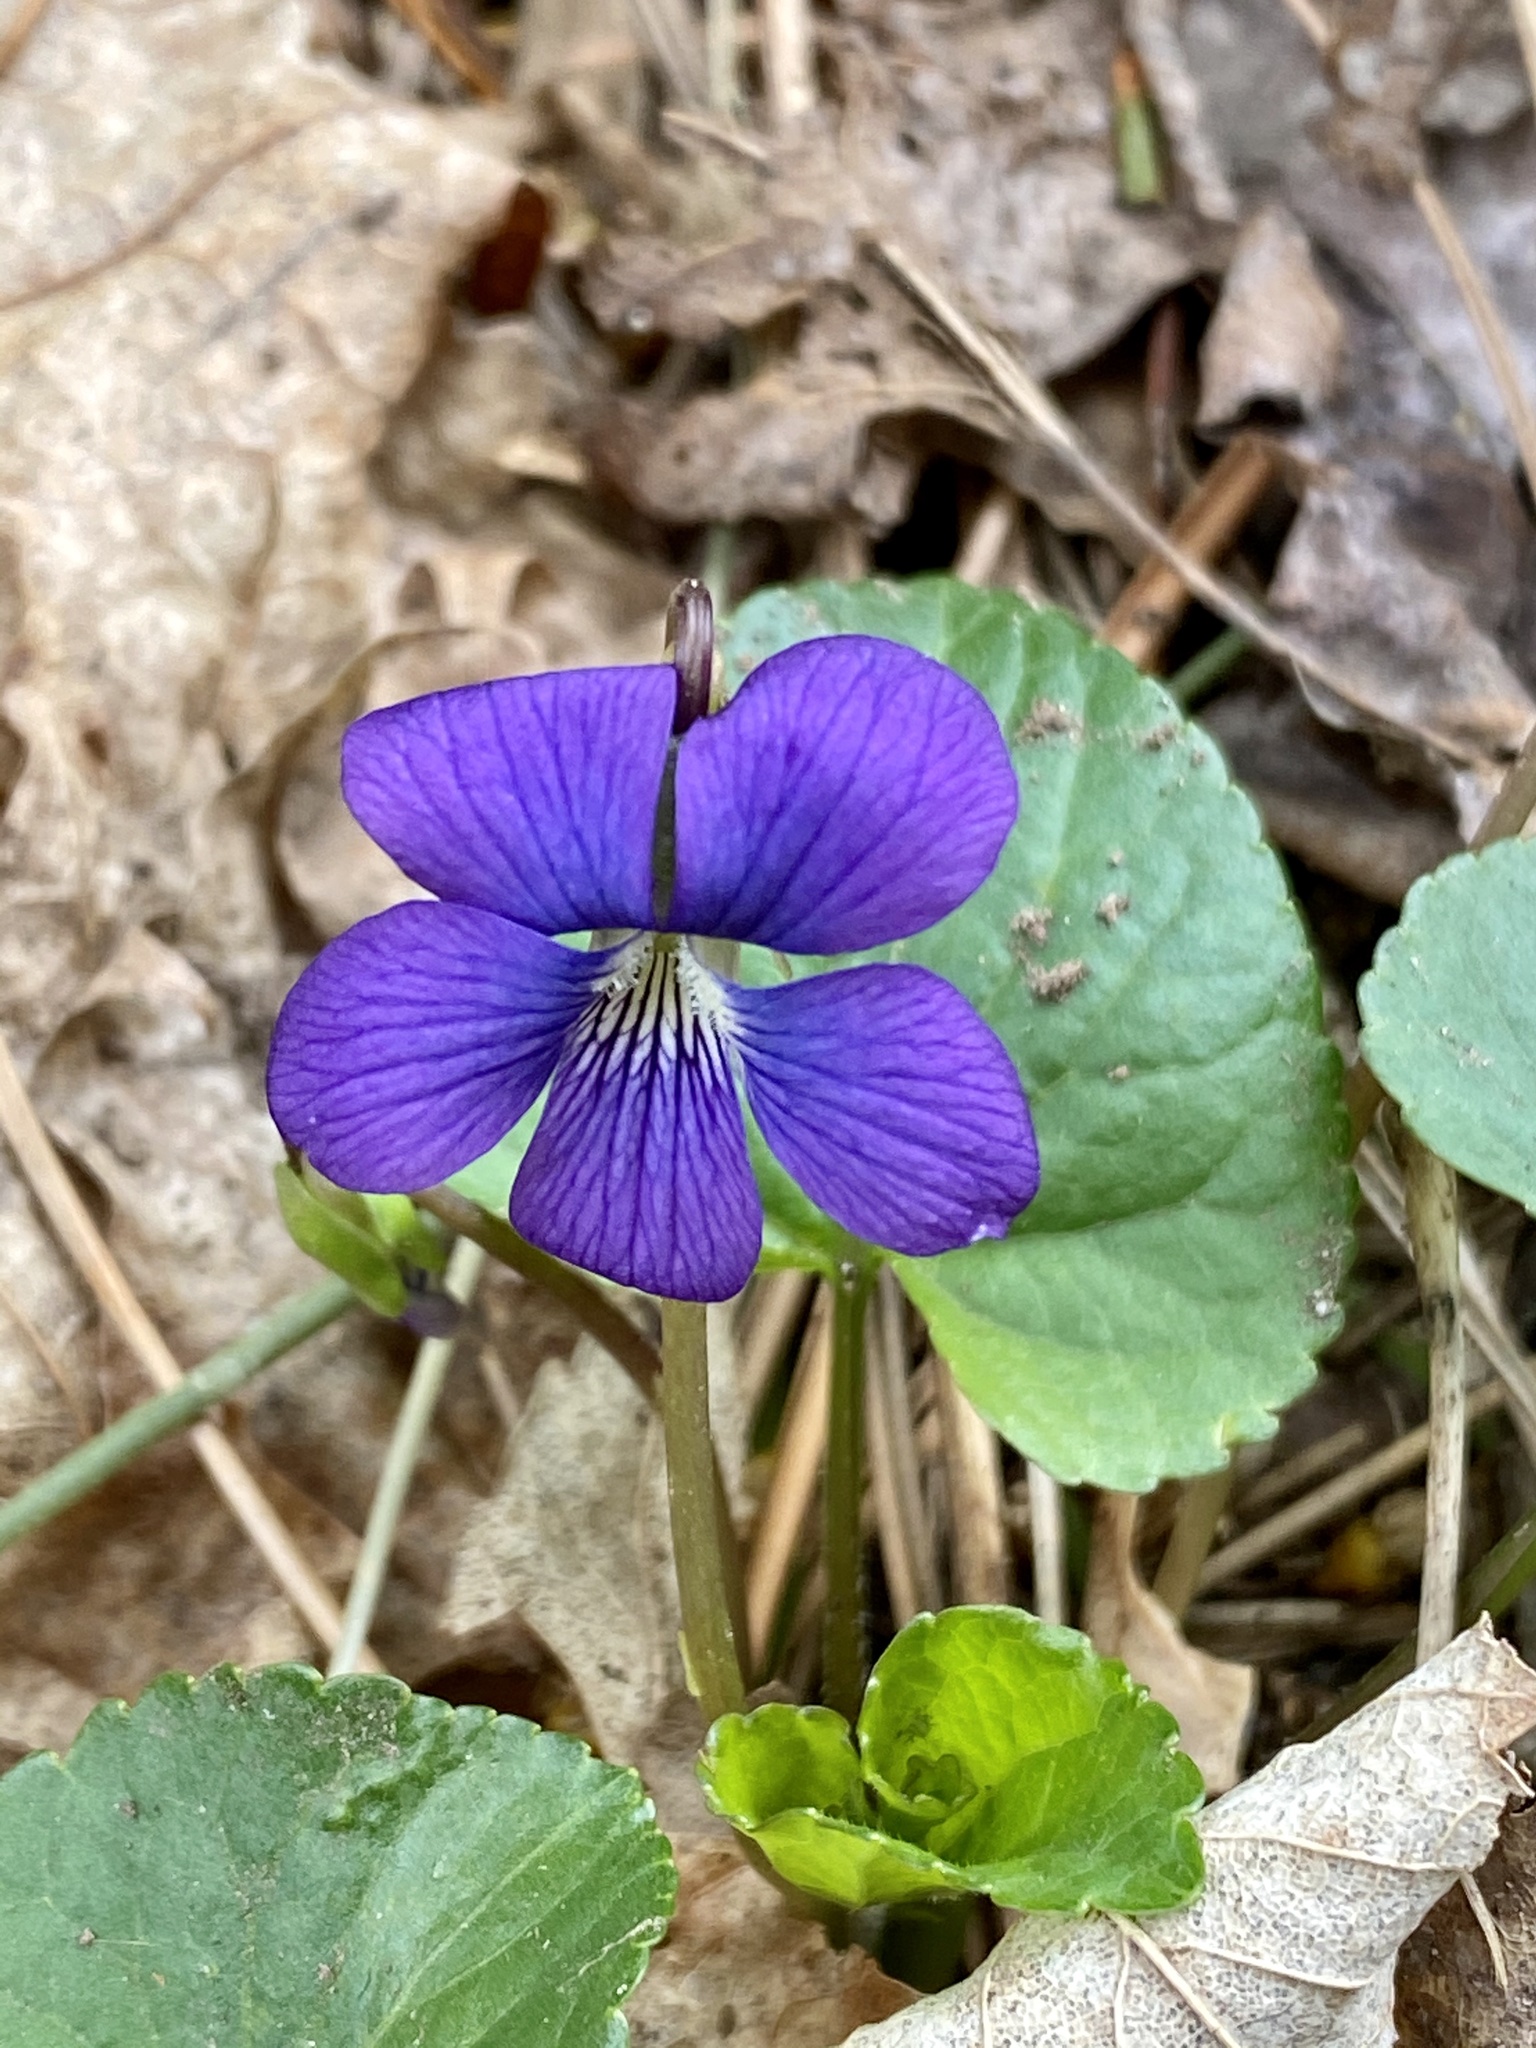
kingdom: Plantae
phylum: Tracheophyta
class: Magnoliopsida
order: Malpighiales
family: Violaceae
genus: Viola
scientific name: Viola sororia
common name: Dooryard violet
